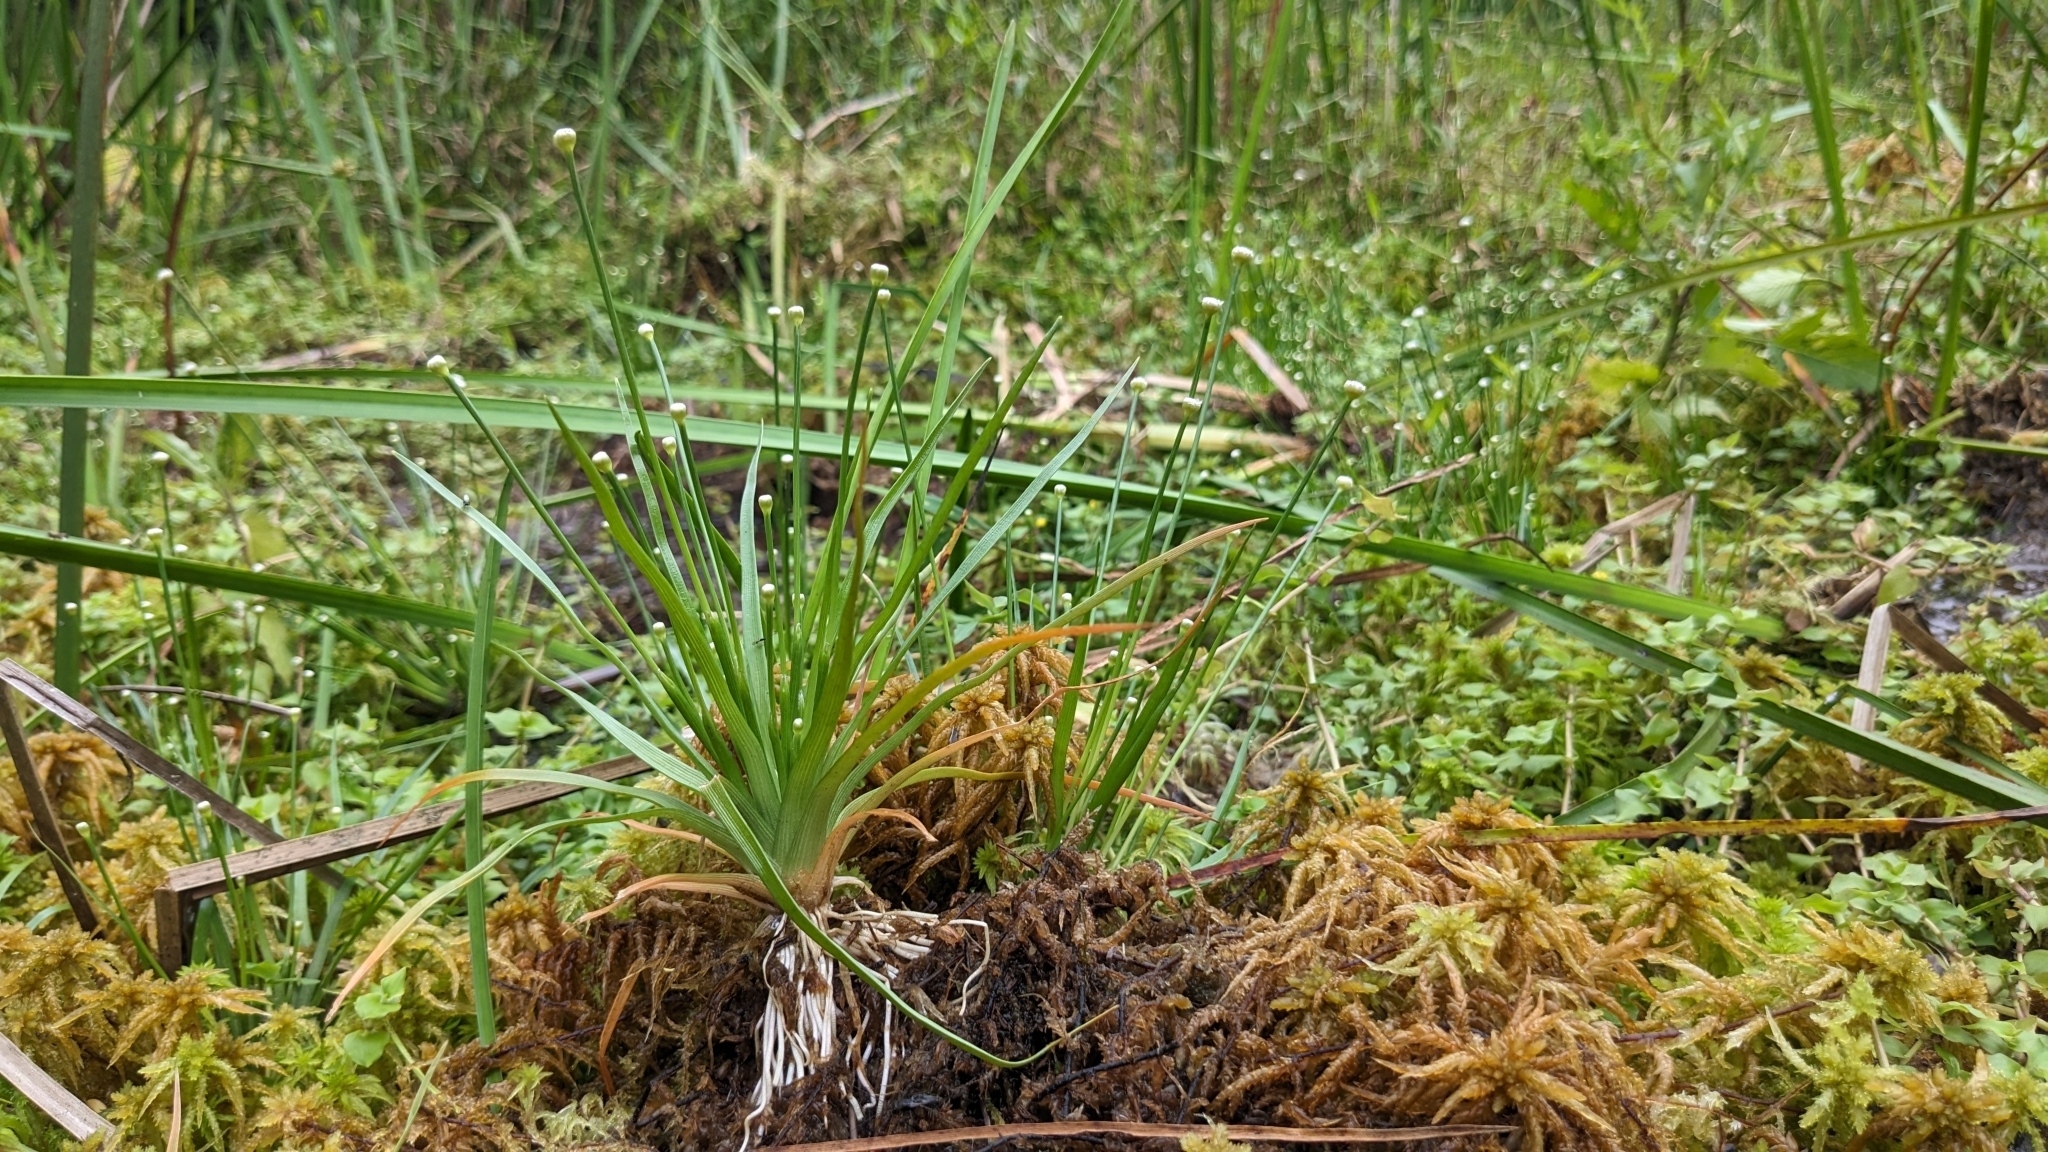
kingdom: Plantae
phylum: Tracheophyta
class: Liliopsida
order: Poales
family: Eriocaulaceae
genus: Eriocaulon
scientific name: Eriocaulon buergerianum
